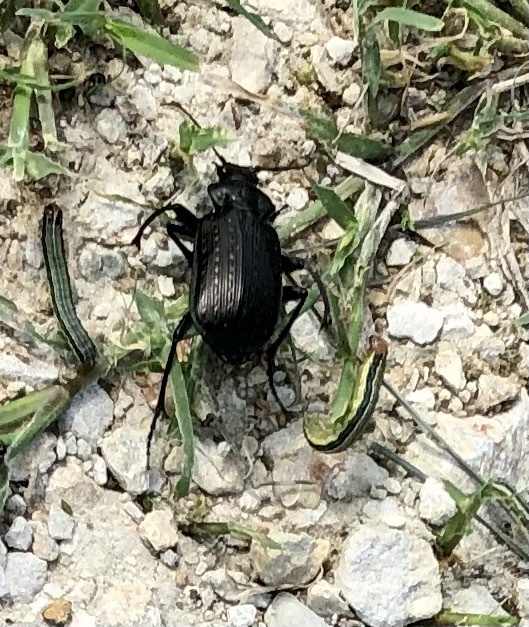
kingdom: Animalia
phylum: Arthropoda
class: Insecta
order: Coleoptera
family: Carabidae
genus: Calosoma
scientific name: Calosoma sayi
